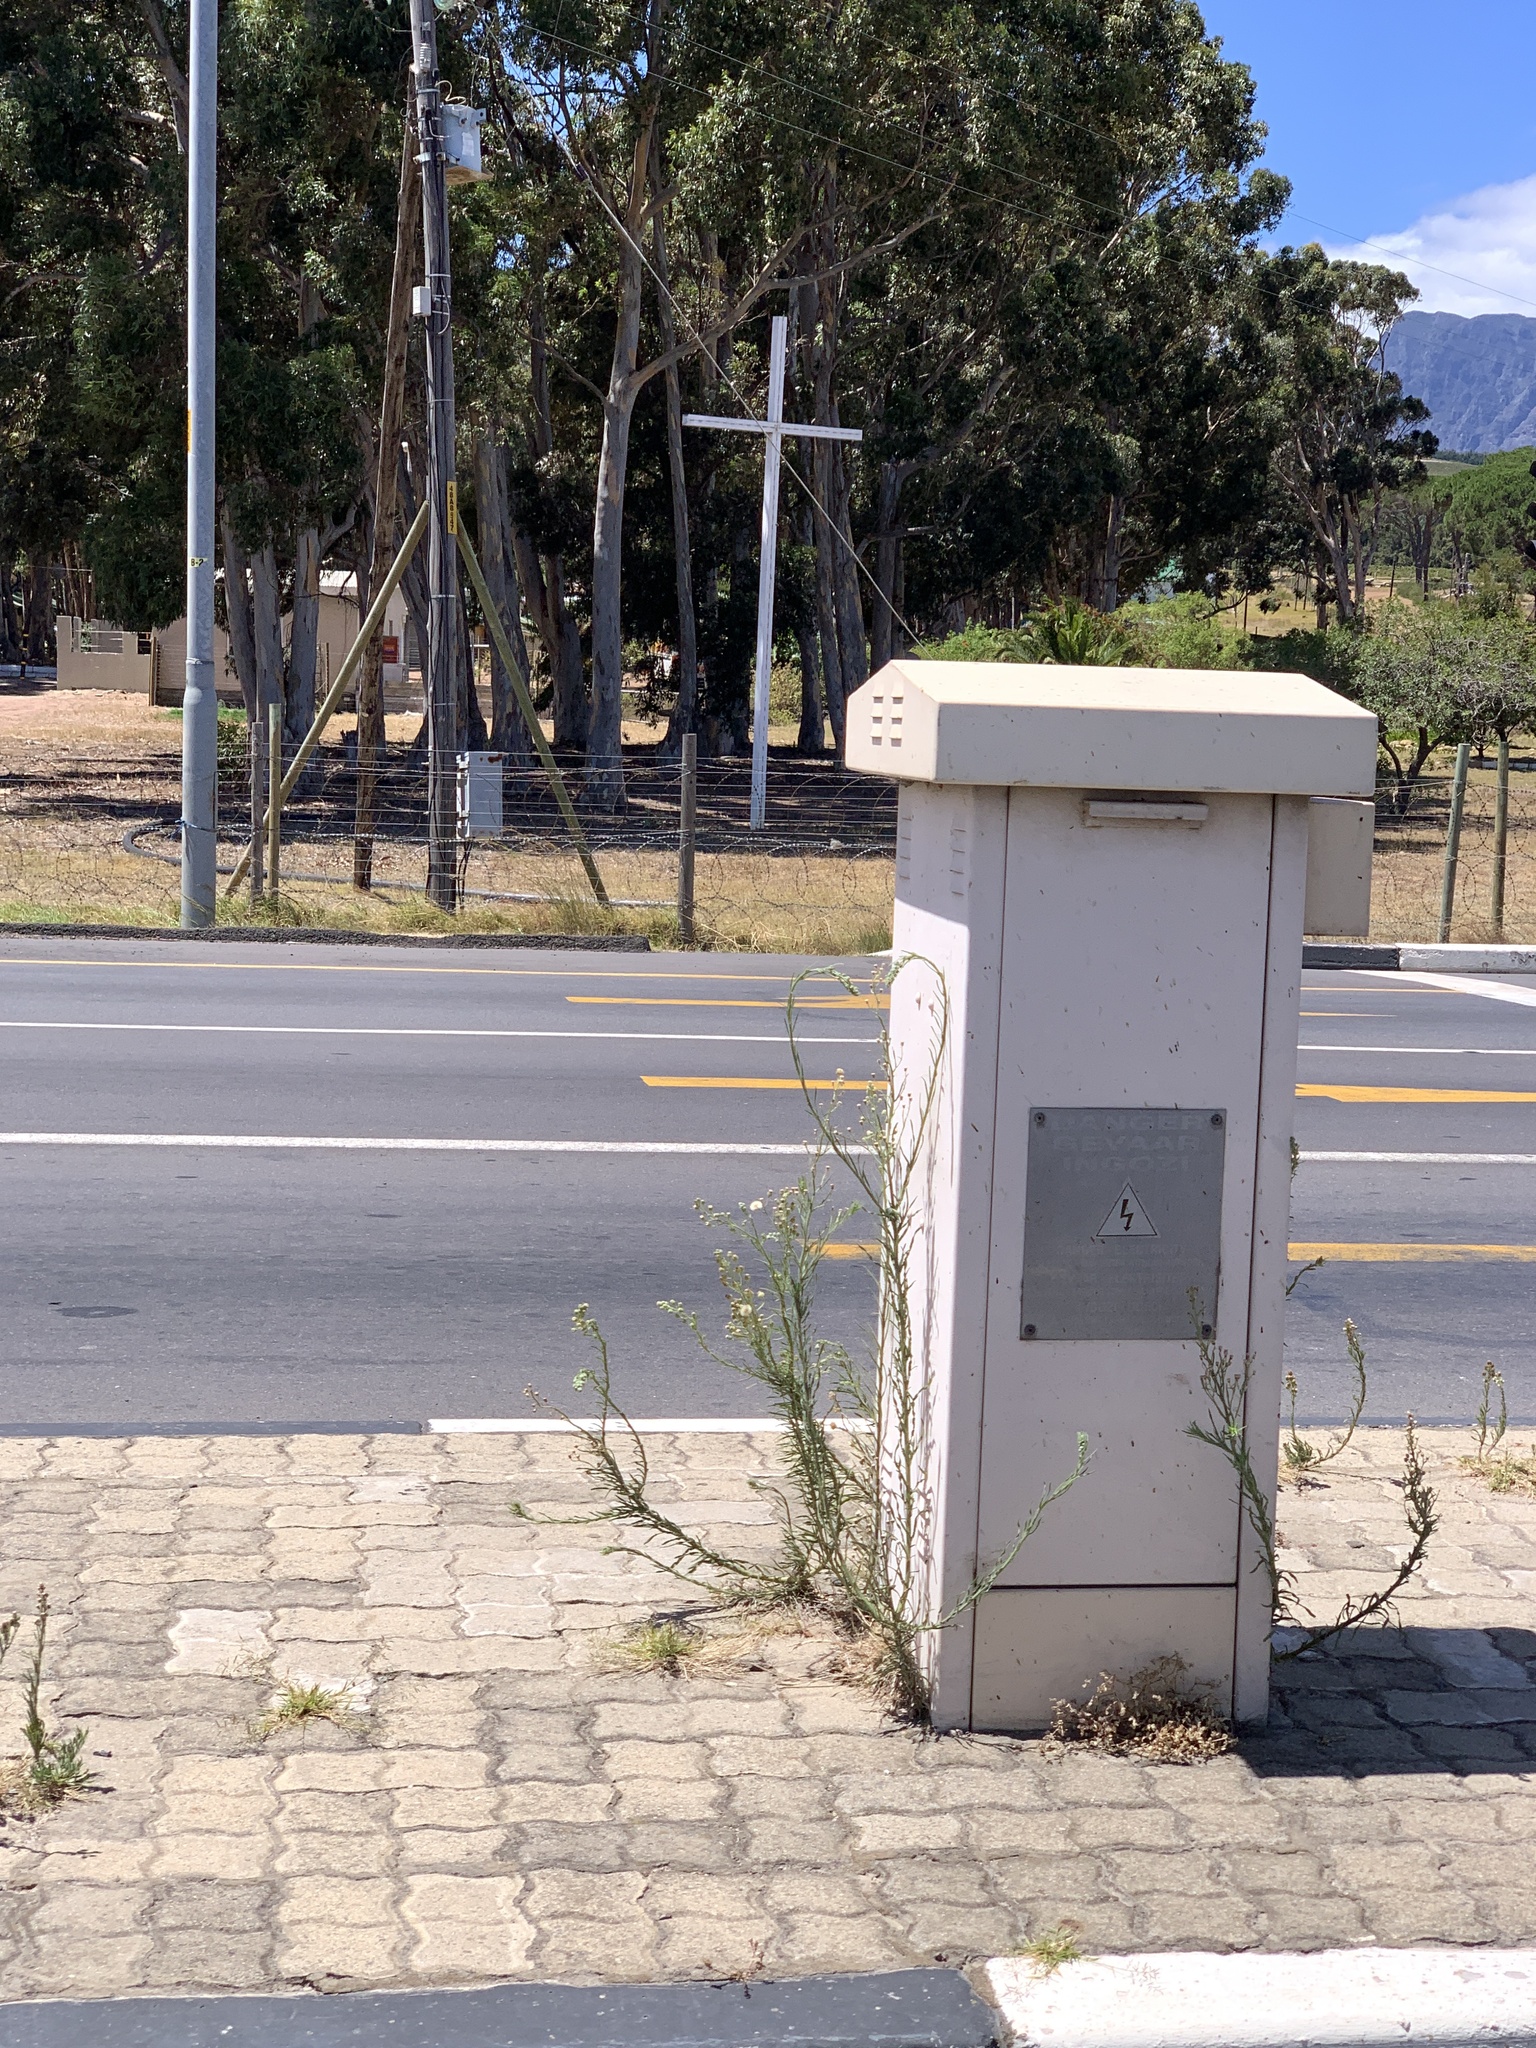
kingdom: Plantae
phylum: Tracheophyta
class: Magnoliopsida
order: Asterales
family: Asteraceae
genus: Erigeron
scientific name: Erigeron bonariensis
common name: Argentine fleabane
